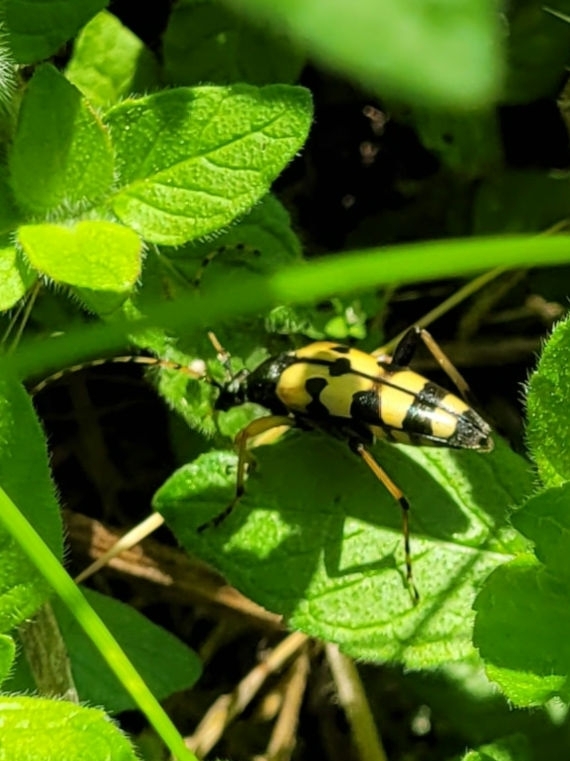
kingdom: Animalia
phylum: Arthropoda
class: Insecta
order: Coleoptera
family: Cerambycidae
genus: Rutpela
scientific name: Rutpela maculata
